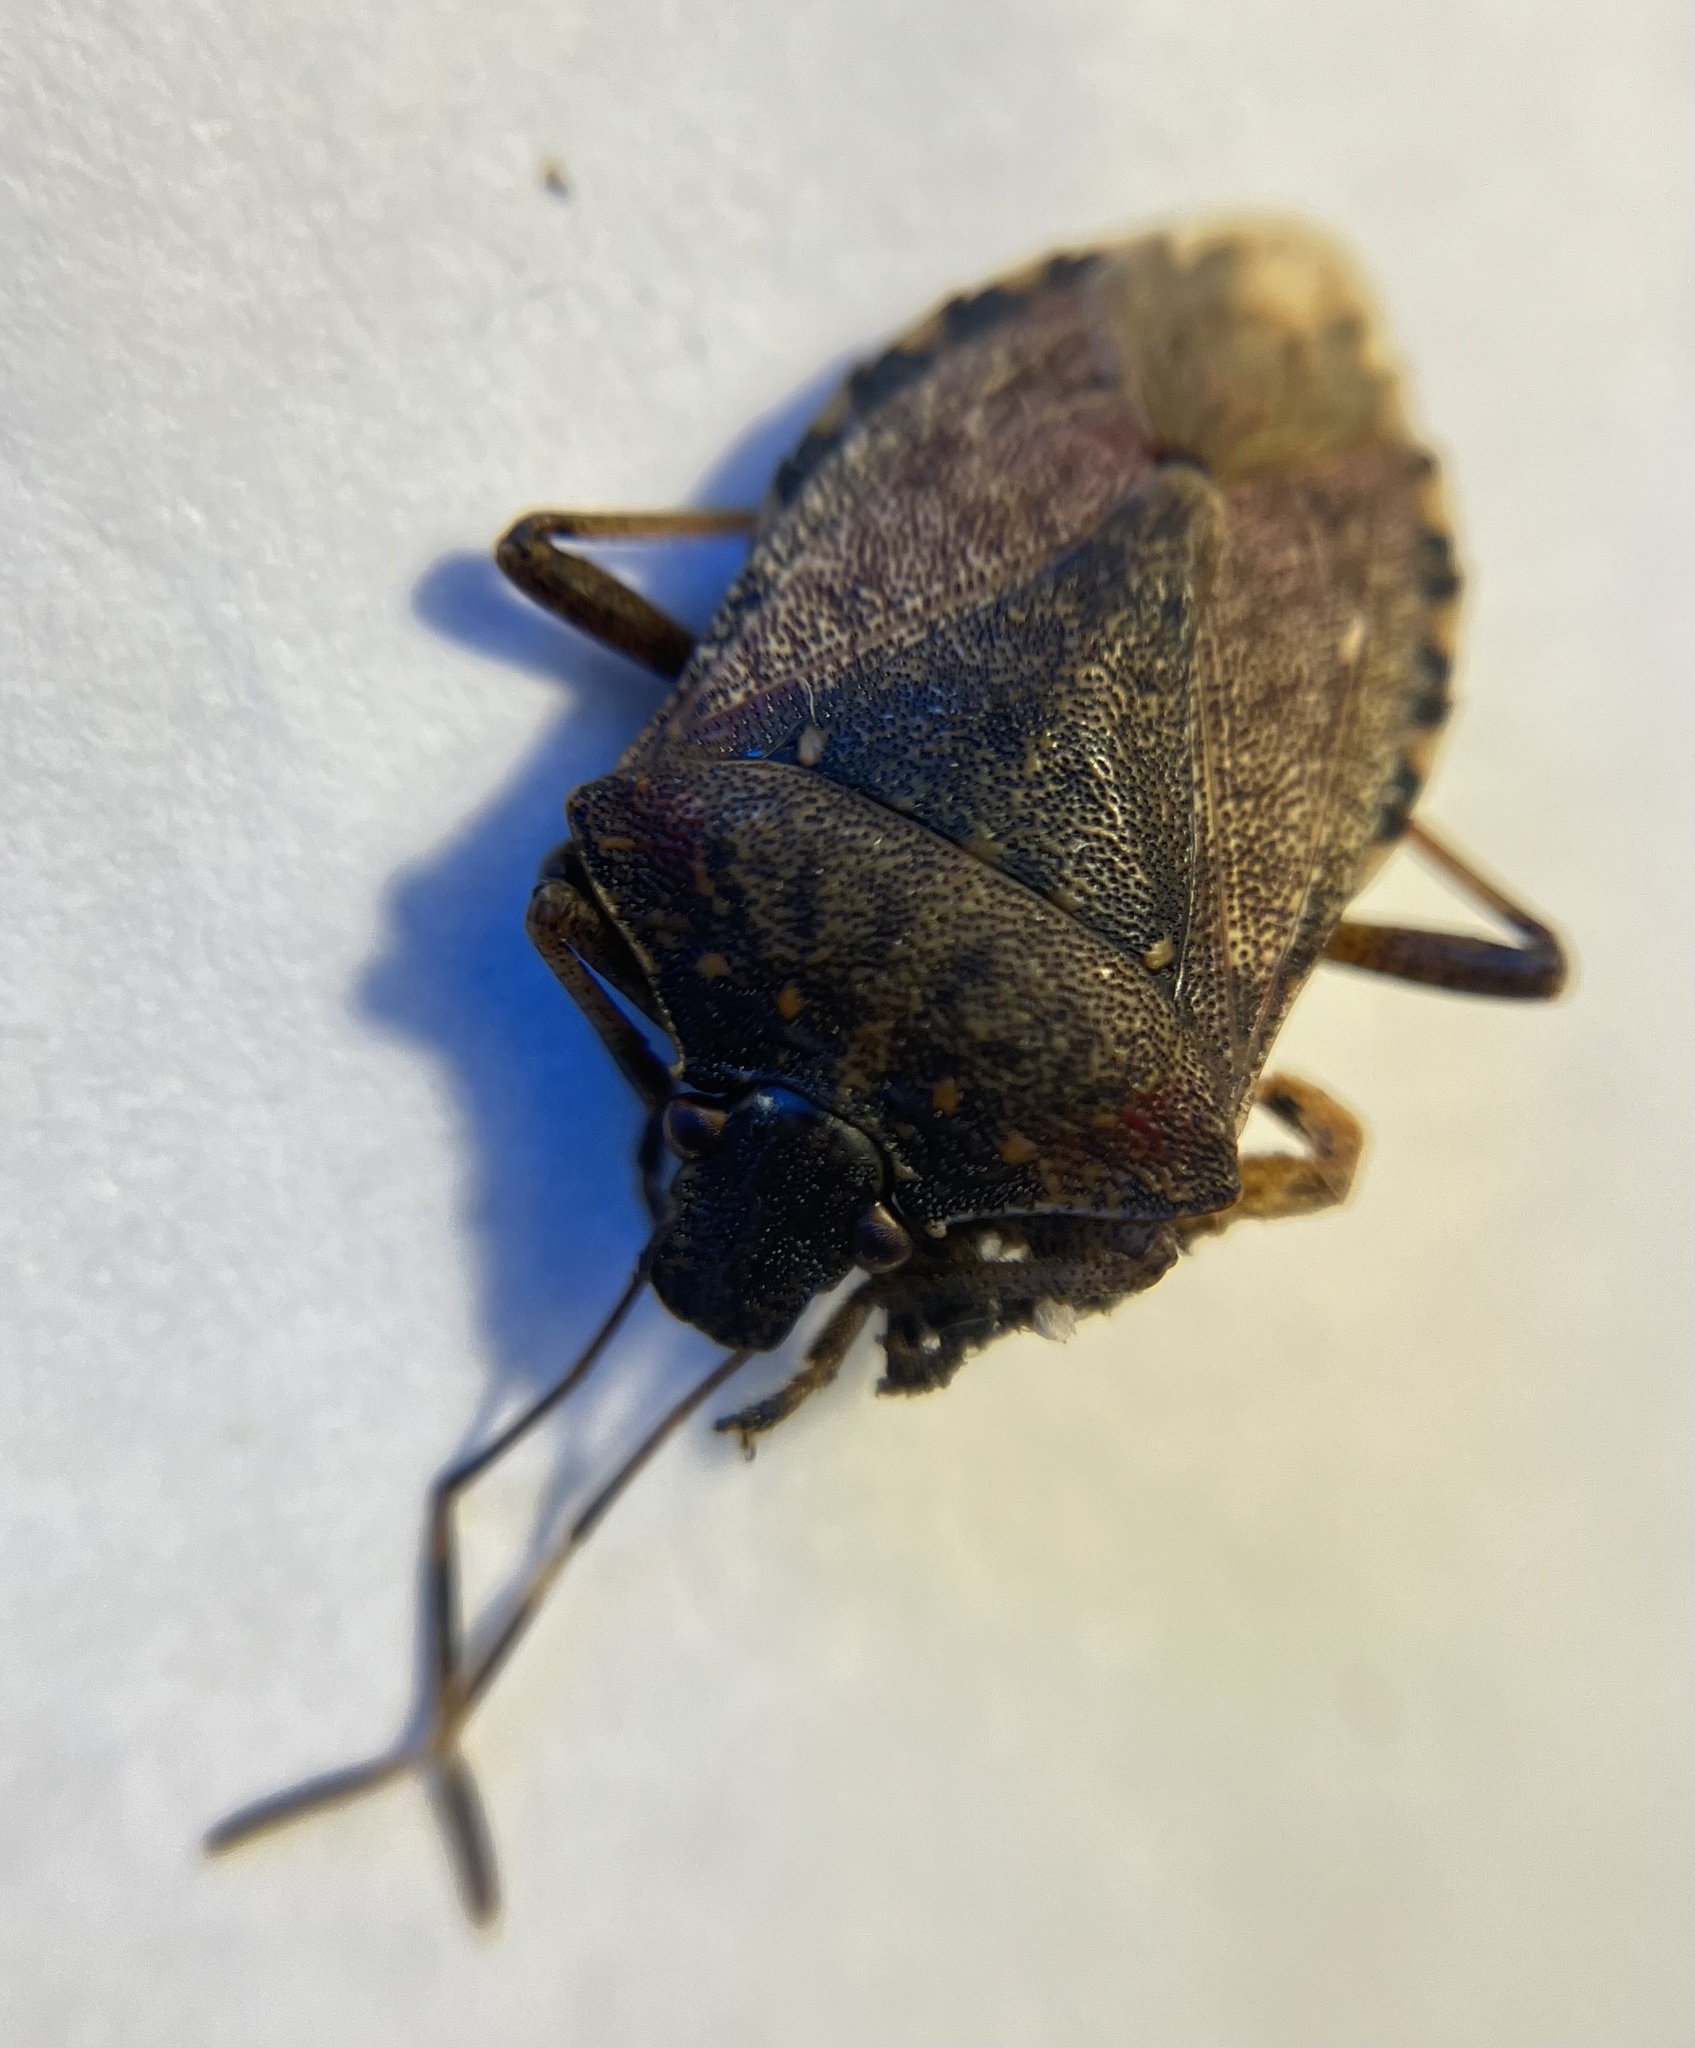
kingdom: Animalia
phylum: Arthropoda
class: Insecta
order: Hemiptera
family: Pentatomidae
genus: Halyomorpha
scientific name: Halyomorpha halys
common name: Brown marmorated stink bug
